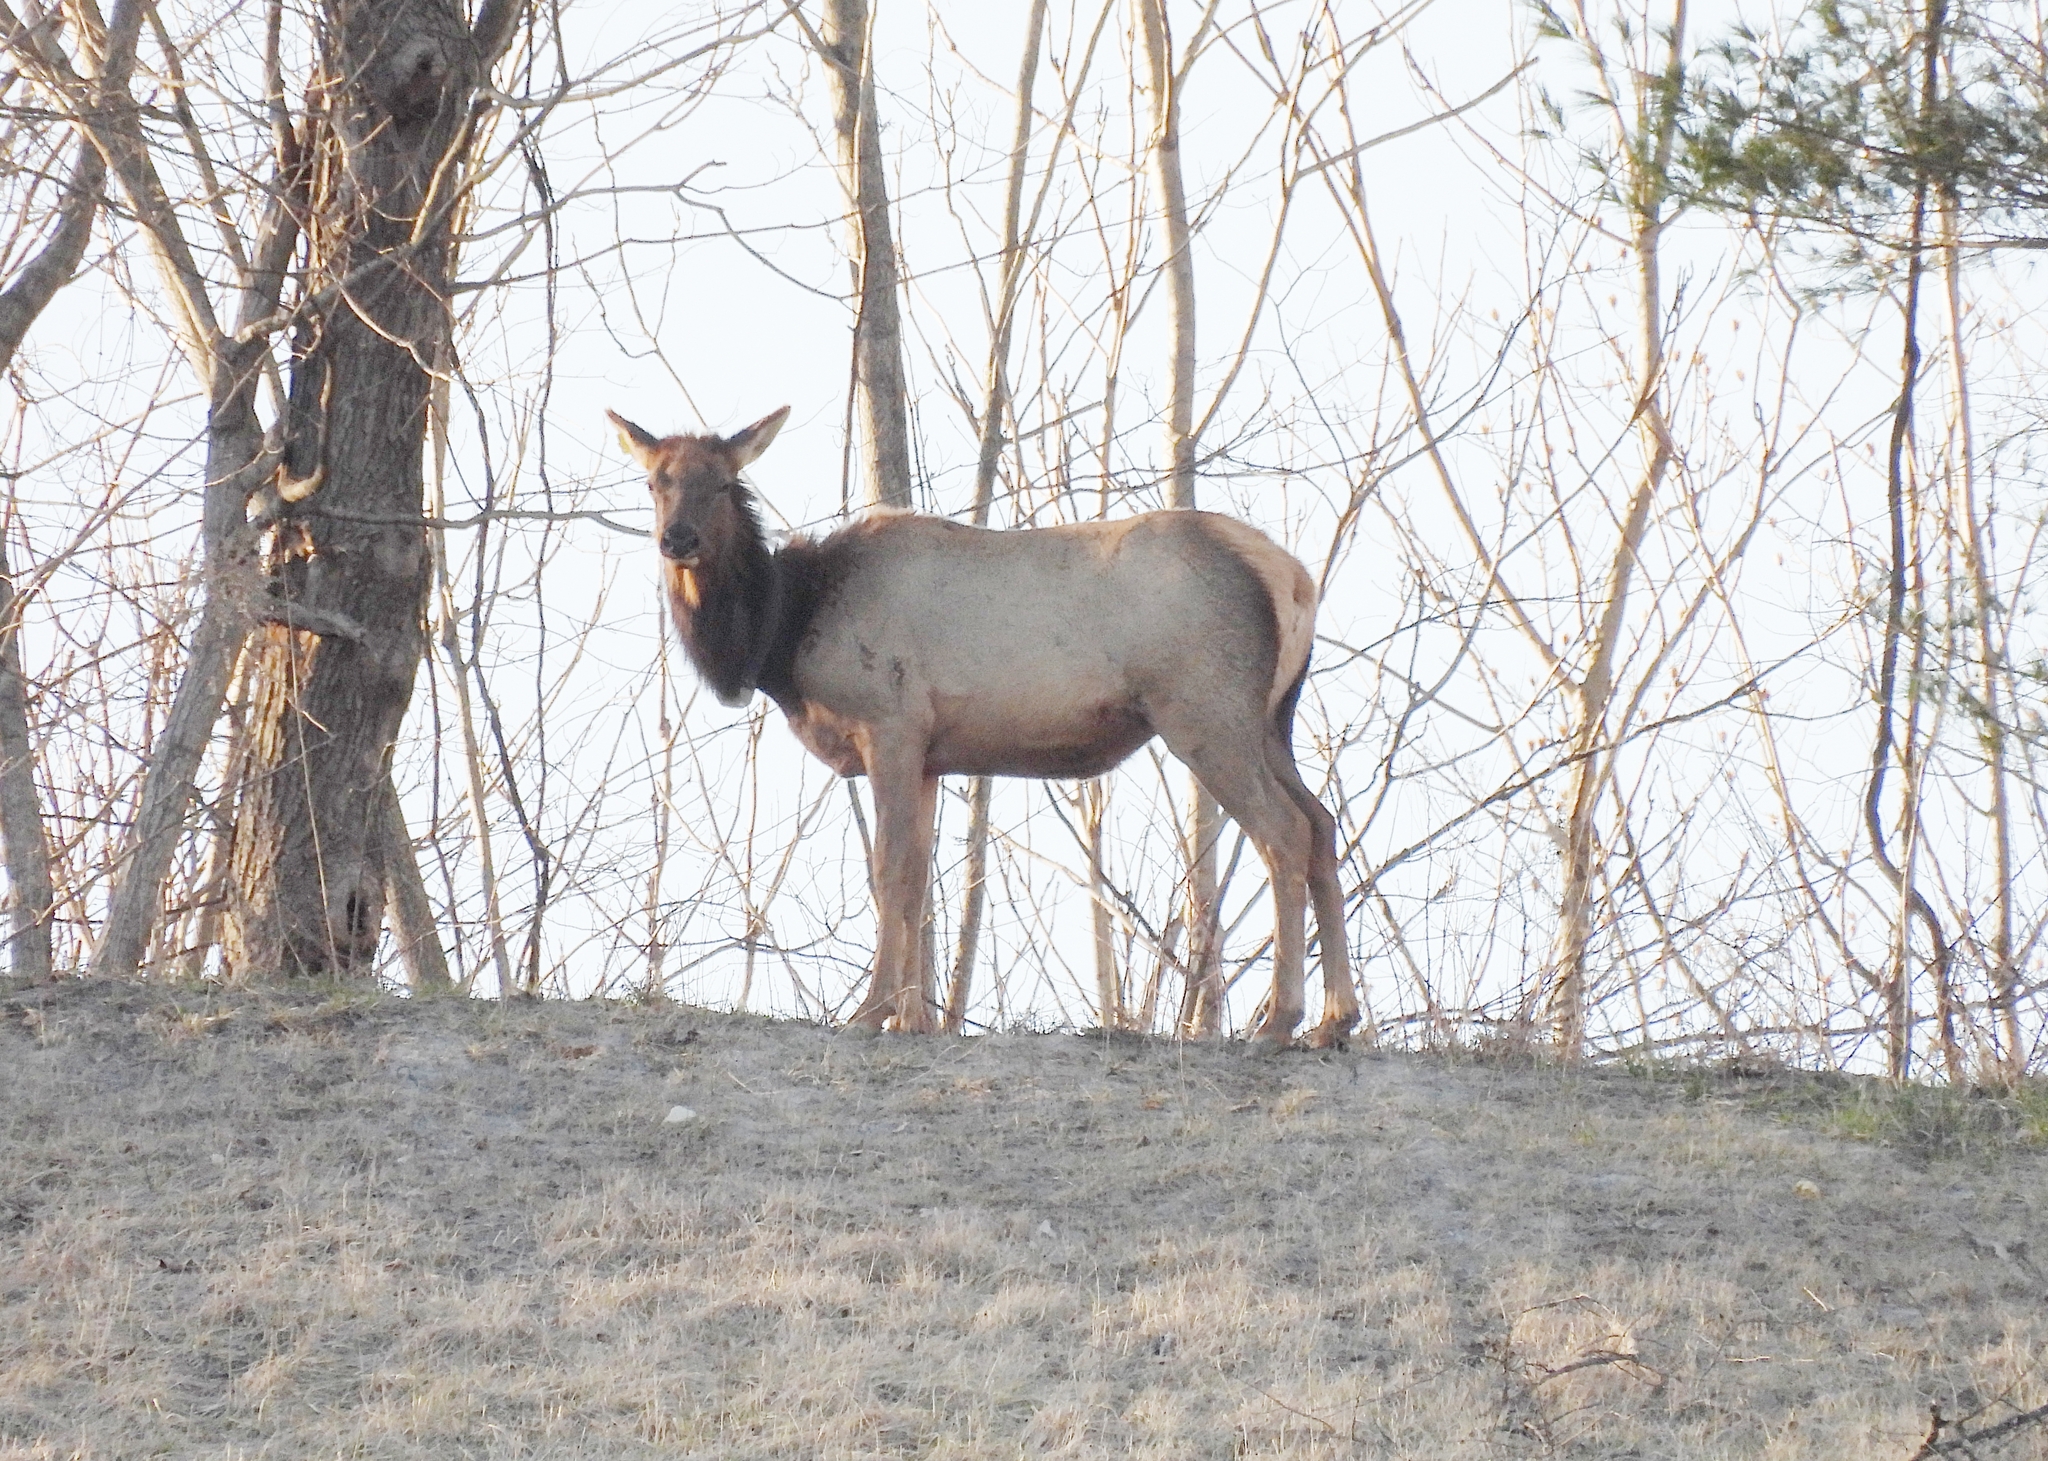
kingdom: Animalia
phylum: Chordata
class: Mammalia
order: Artiodactyla
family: Cervidae
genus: Cervus
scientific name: Cervus elaphus
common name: Red deer
